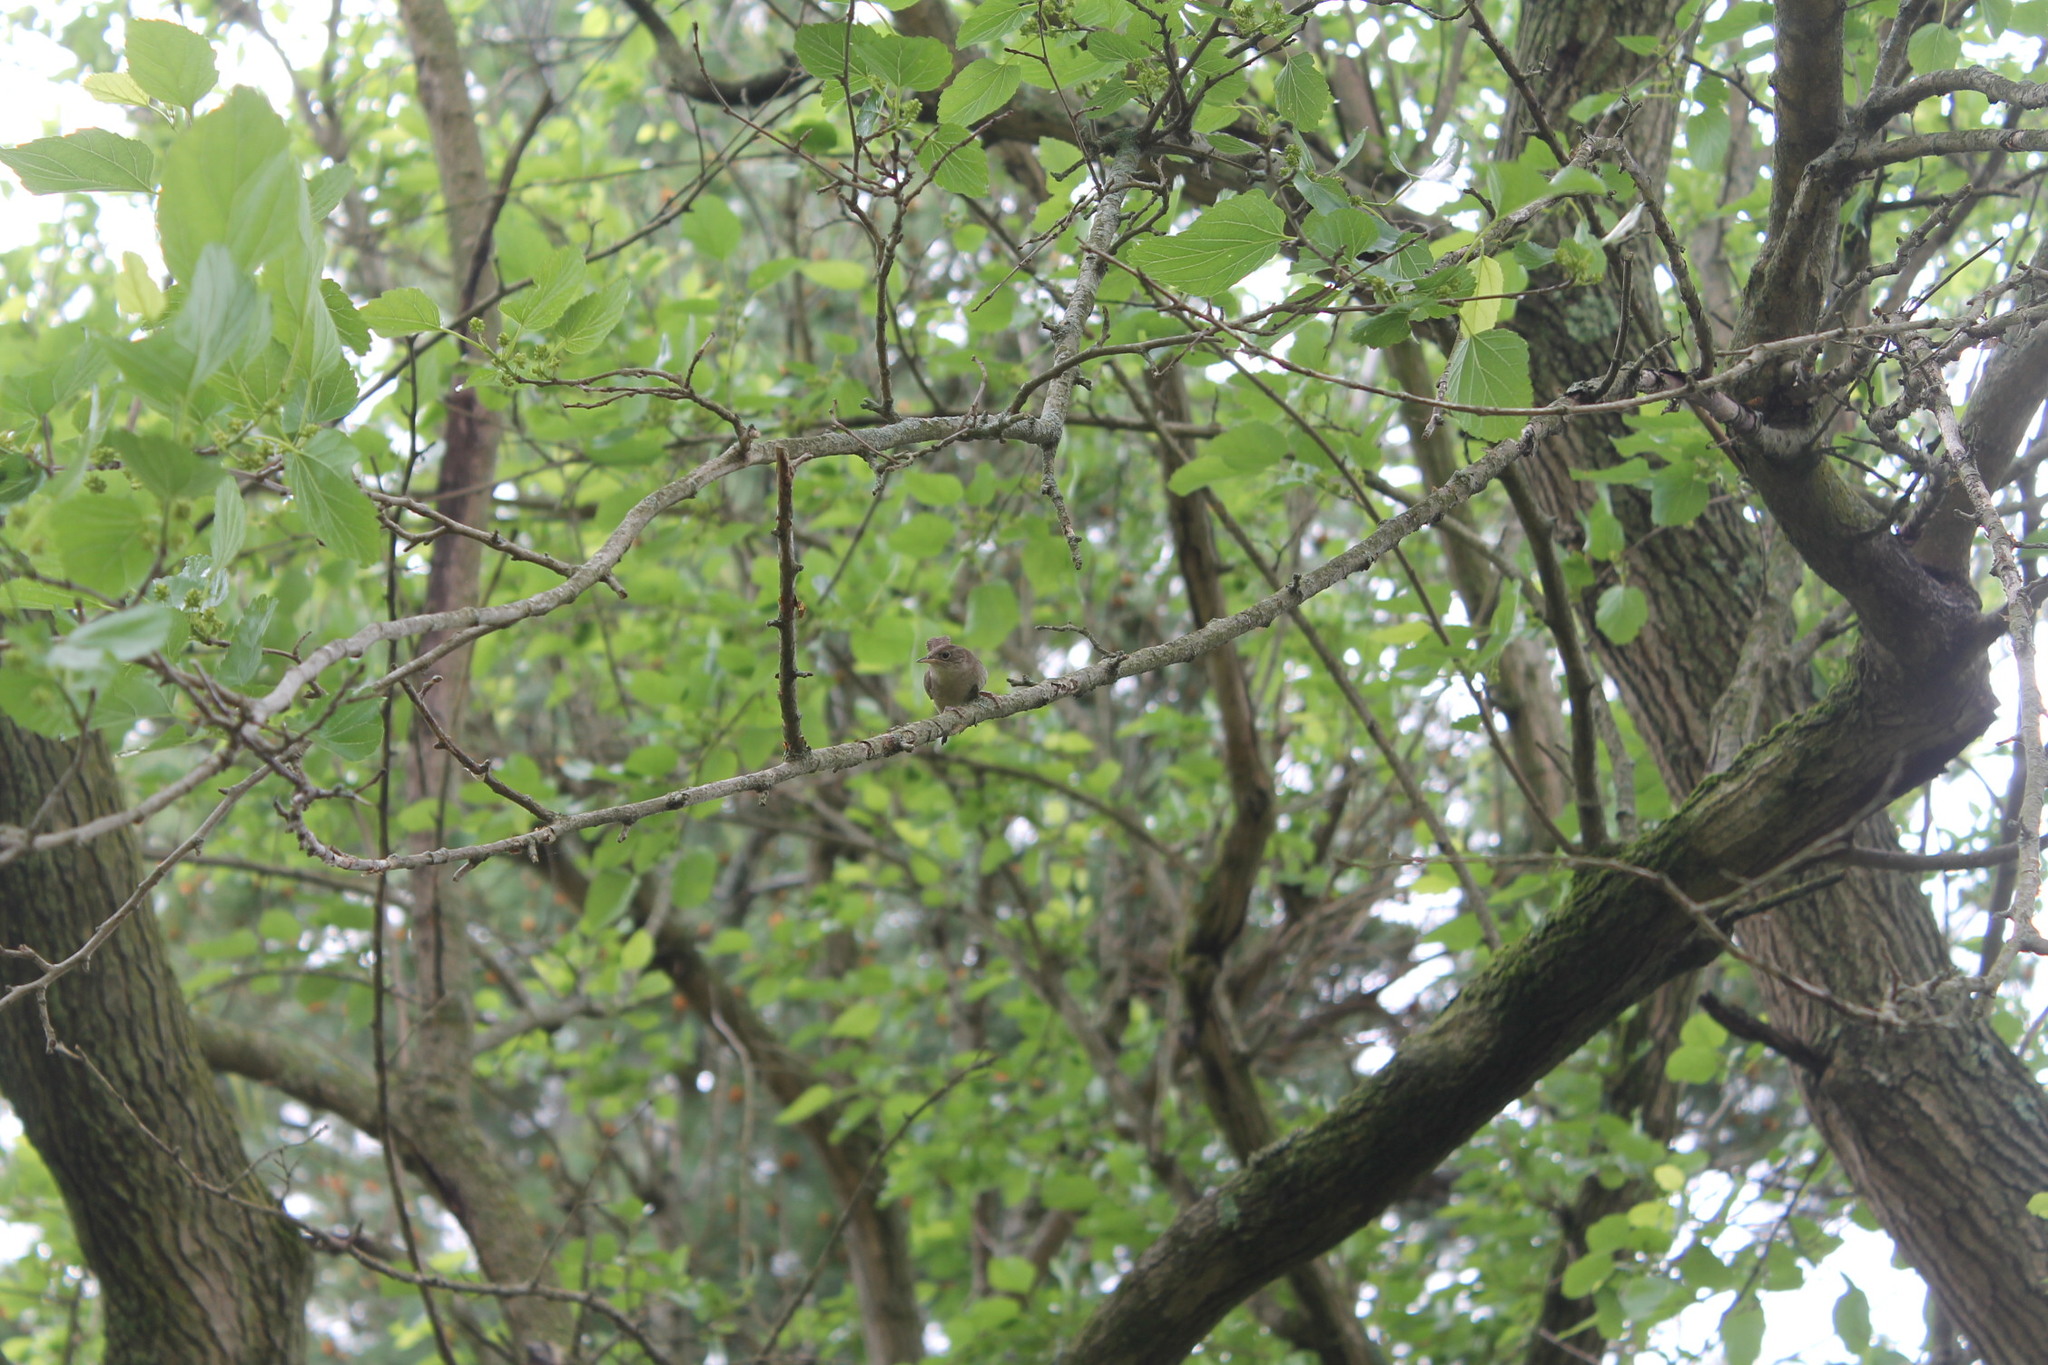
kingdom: Animalia
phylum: Chordata
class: Aves
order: Passeriformes
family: Troglodytidae
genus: Troglodytes
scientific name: Troglodytes aedon
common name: House wren
